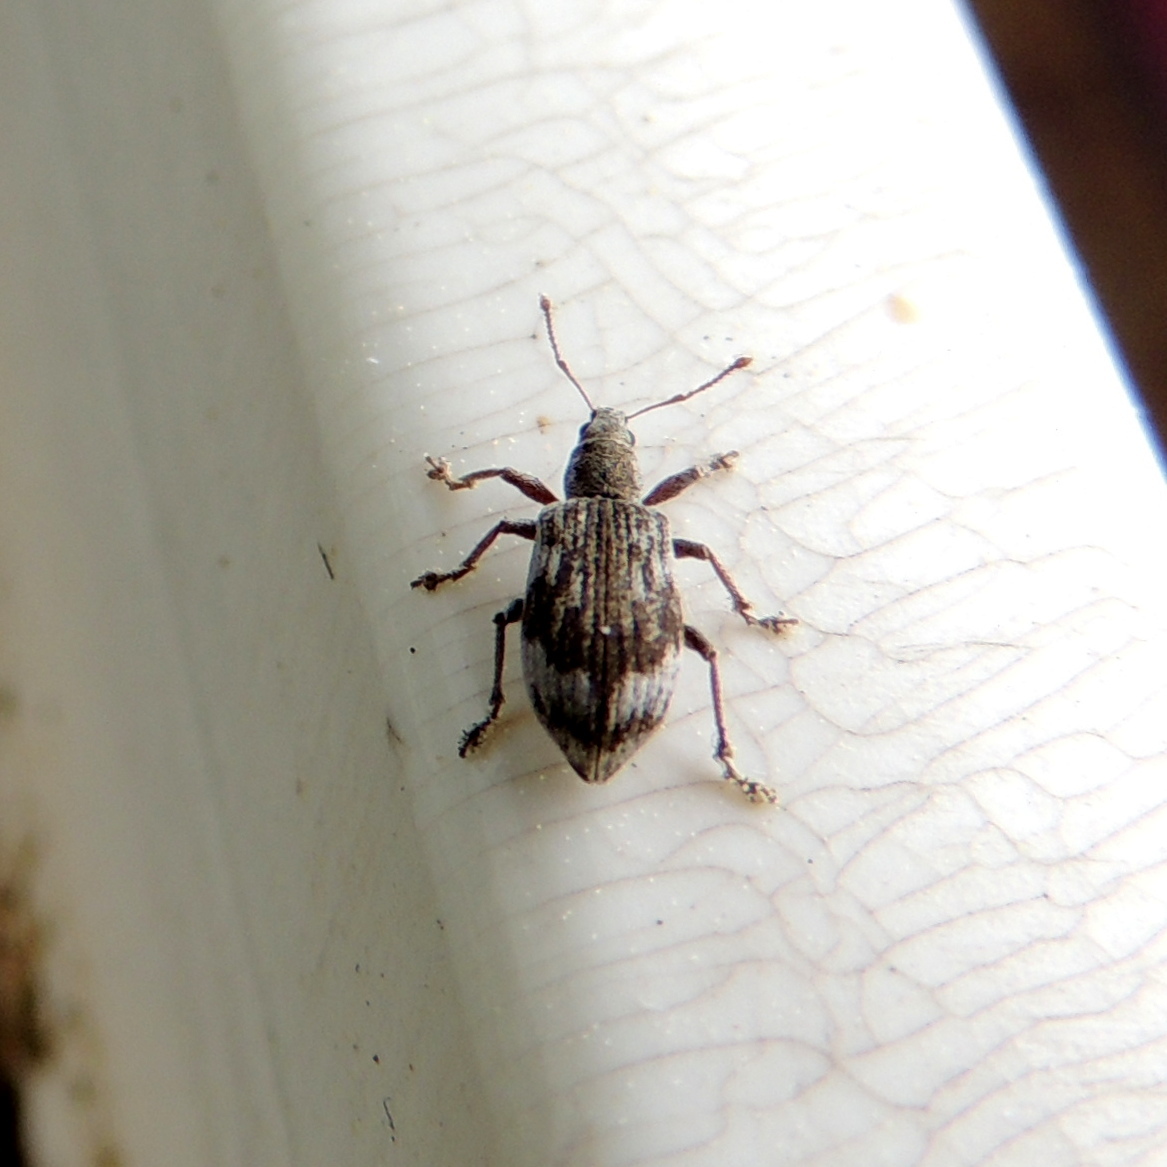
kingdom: Animalia
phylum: Arthropoda
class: Insecta
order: Coleoptera
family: Curculionidae
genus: Polydrusus
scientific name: Polydrusus tereticollis
